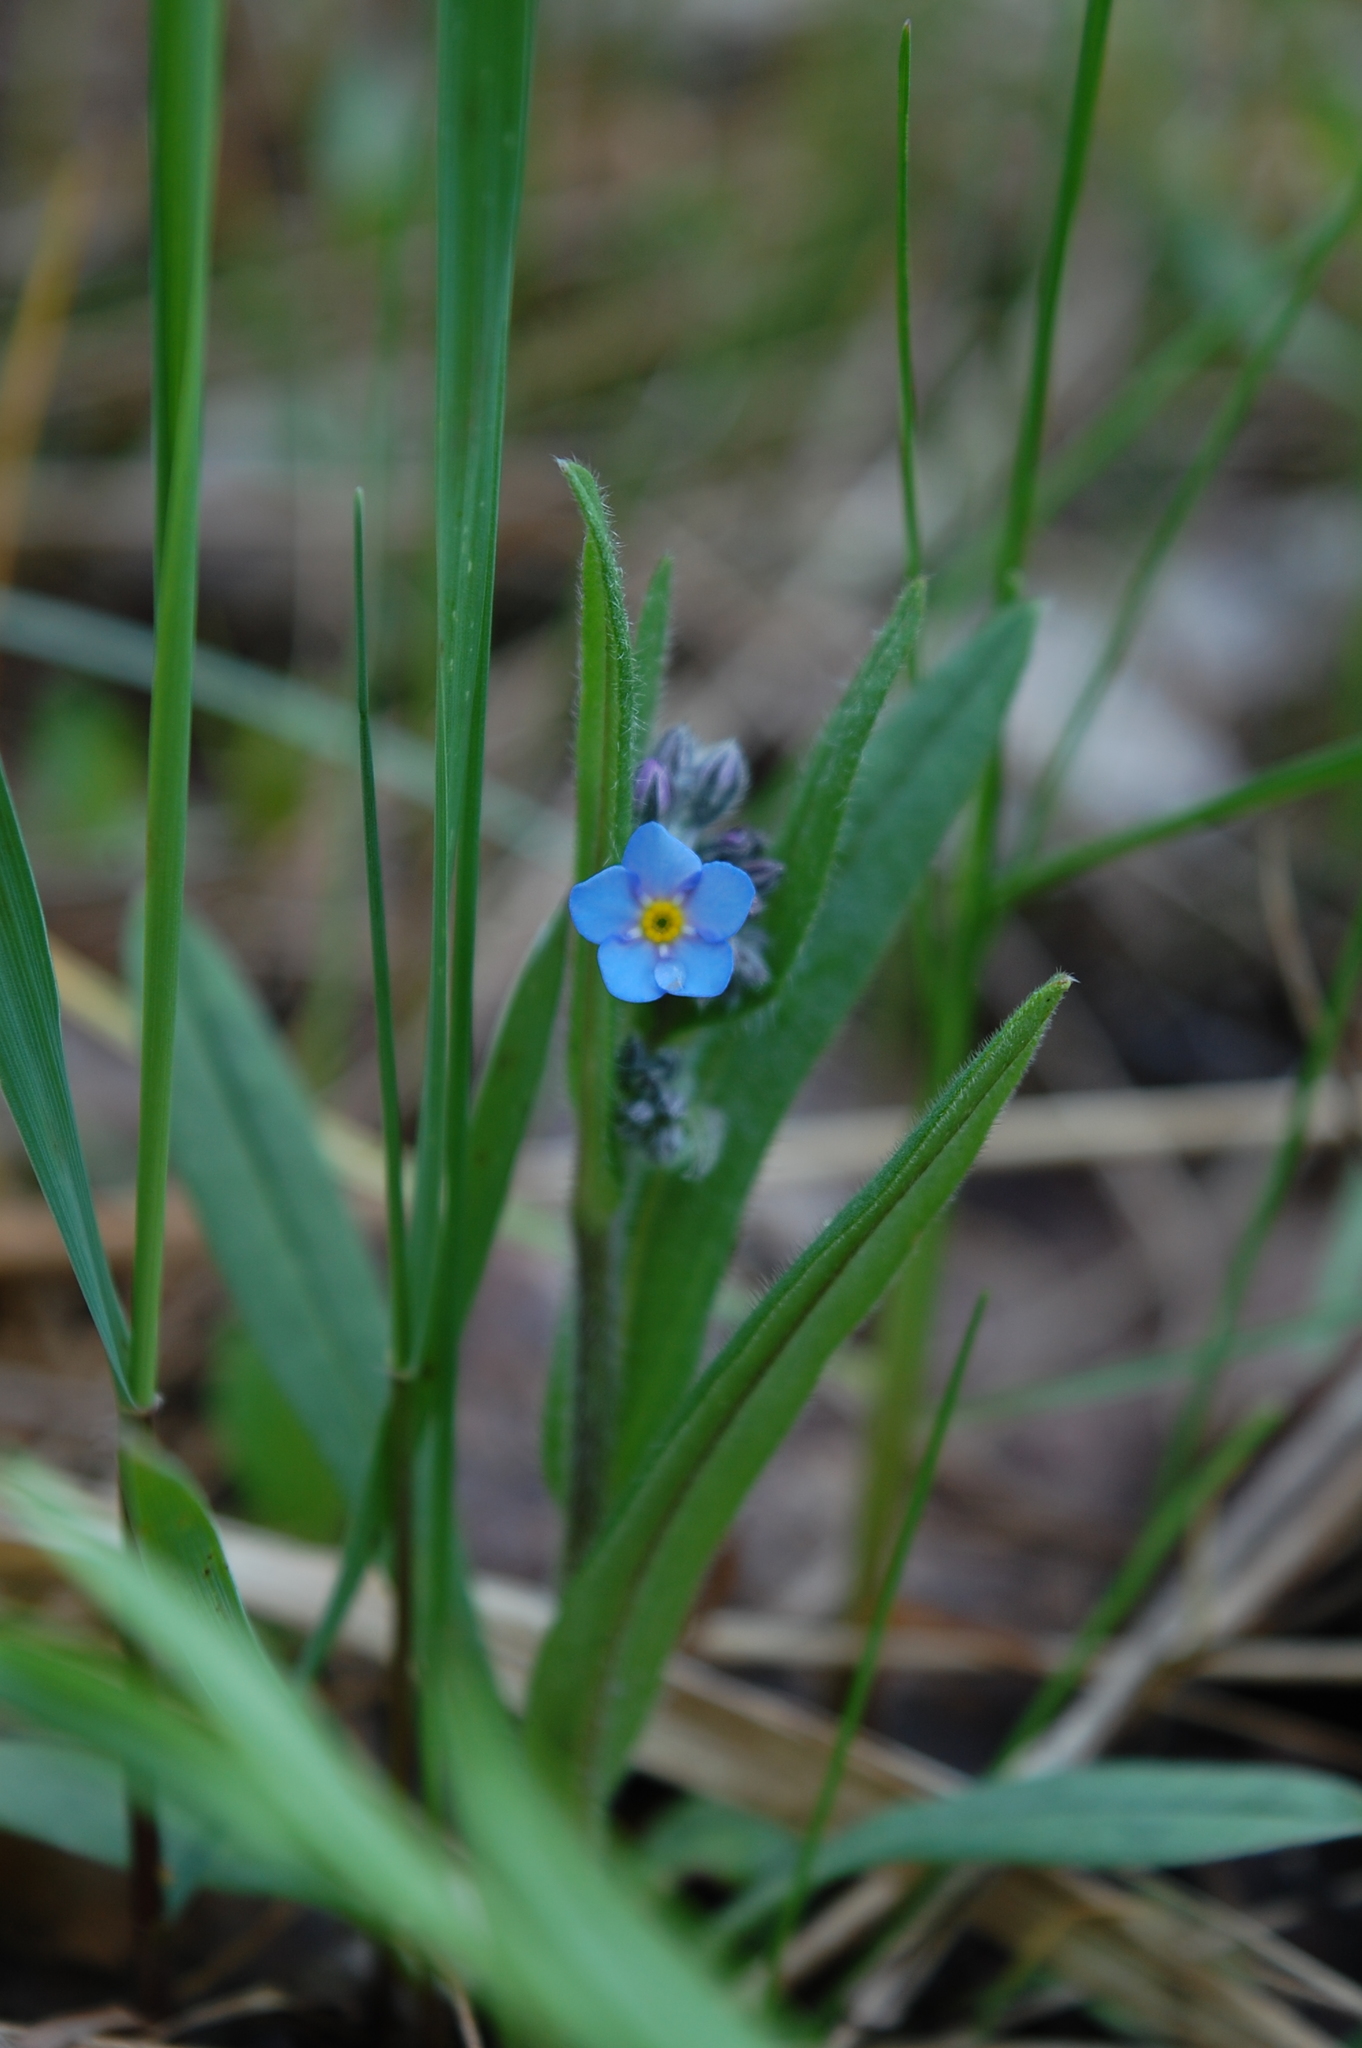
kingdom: Plantae
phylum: Tracheophyta
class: Magnoliopsida
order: Boraginales
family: Boraginaceae
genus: Myosotis
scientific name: Myosotis sylvatica
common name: Wood forget-me-not
